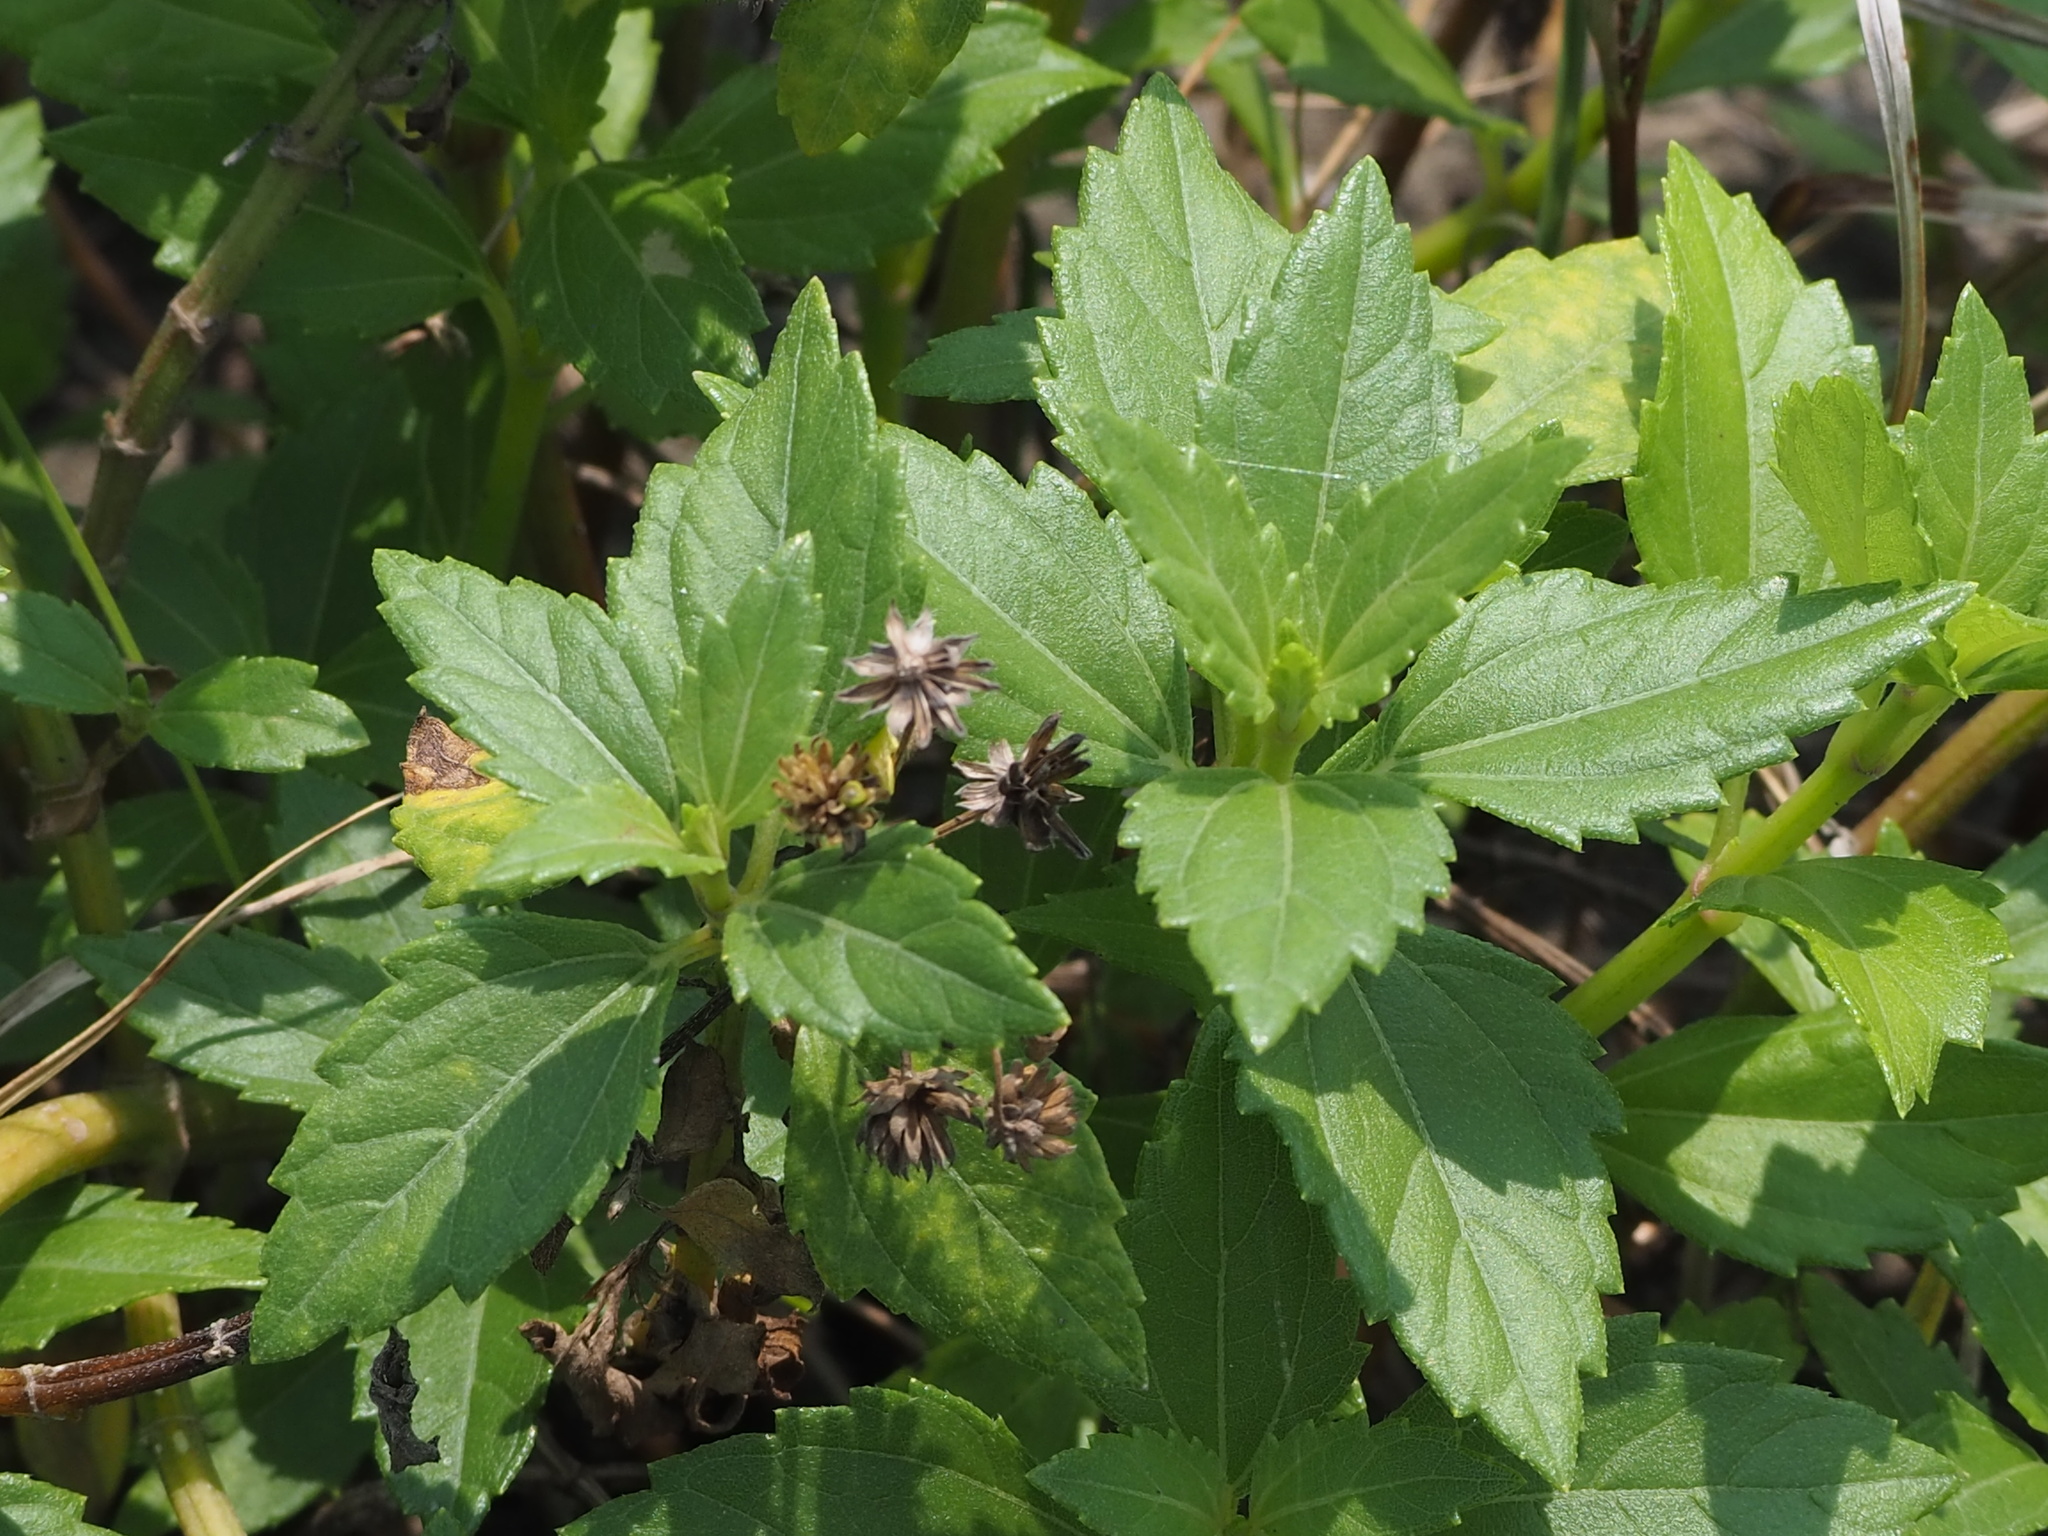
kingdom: Plantae
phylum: Tracheophyta
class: Magnoliopsida
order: Asterales
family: Asteraceae
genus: Wollastonia
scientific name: Wollastonia biflora
